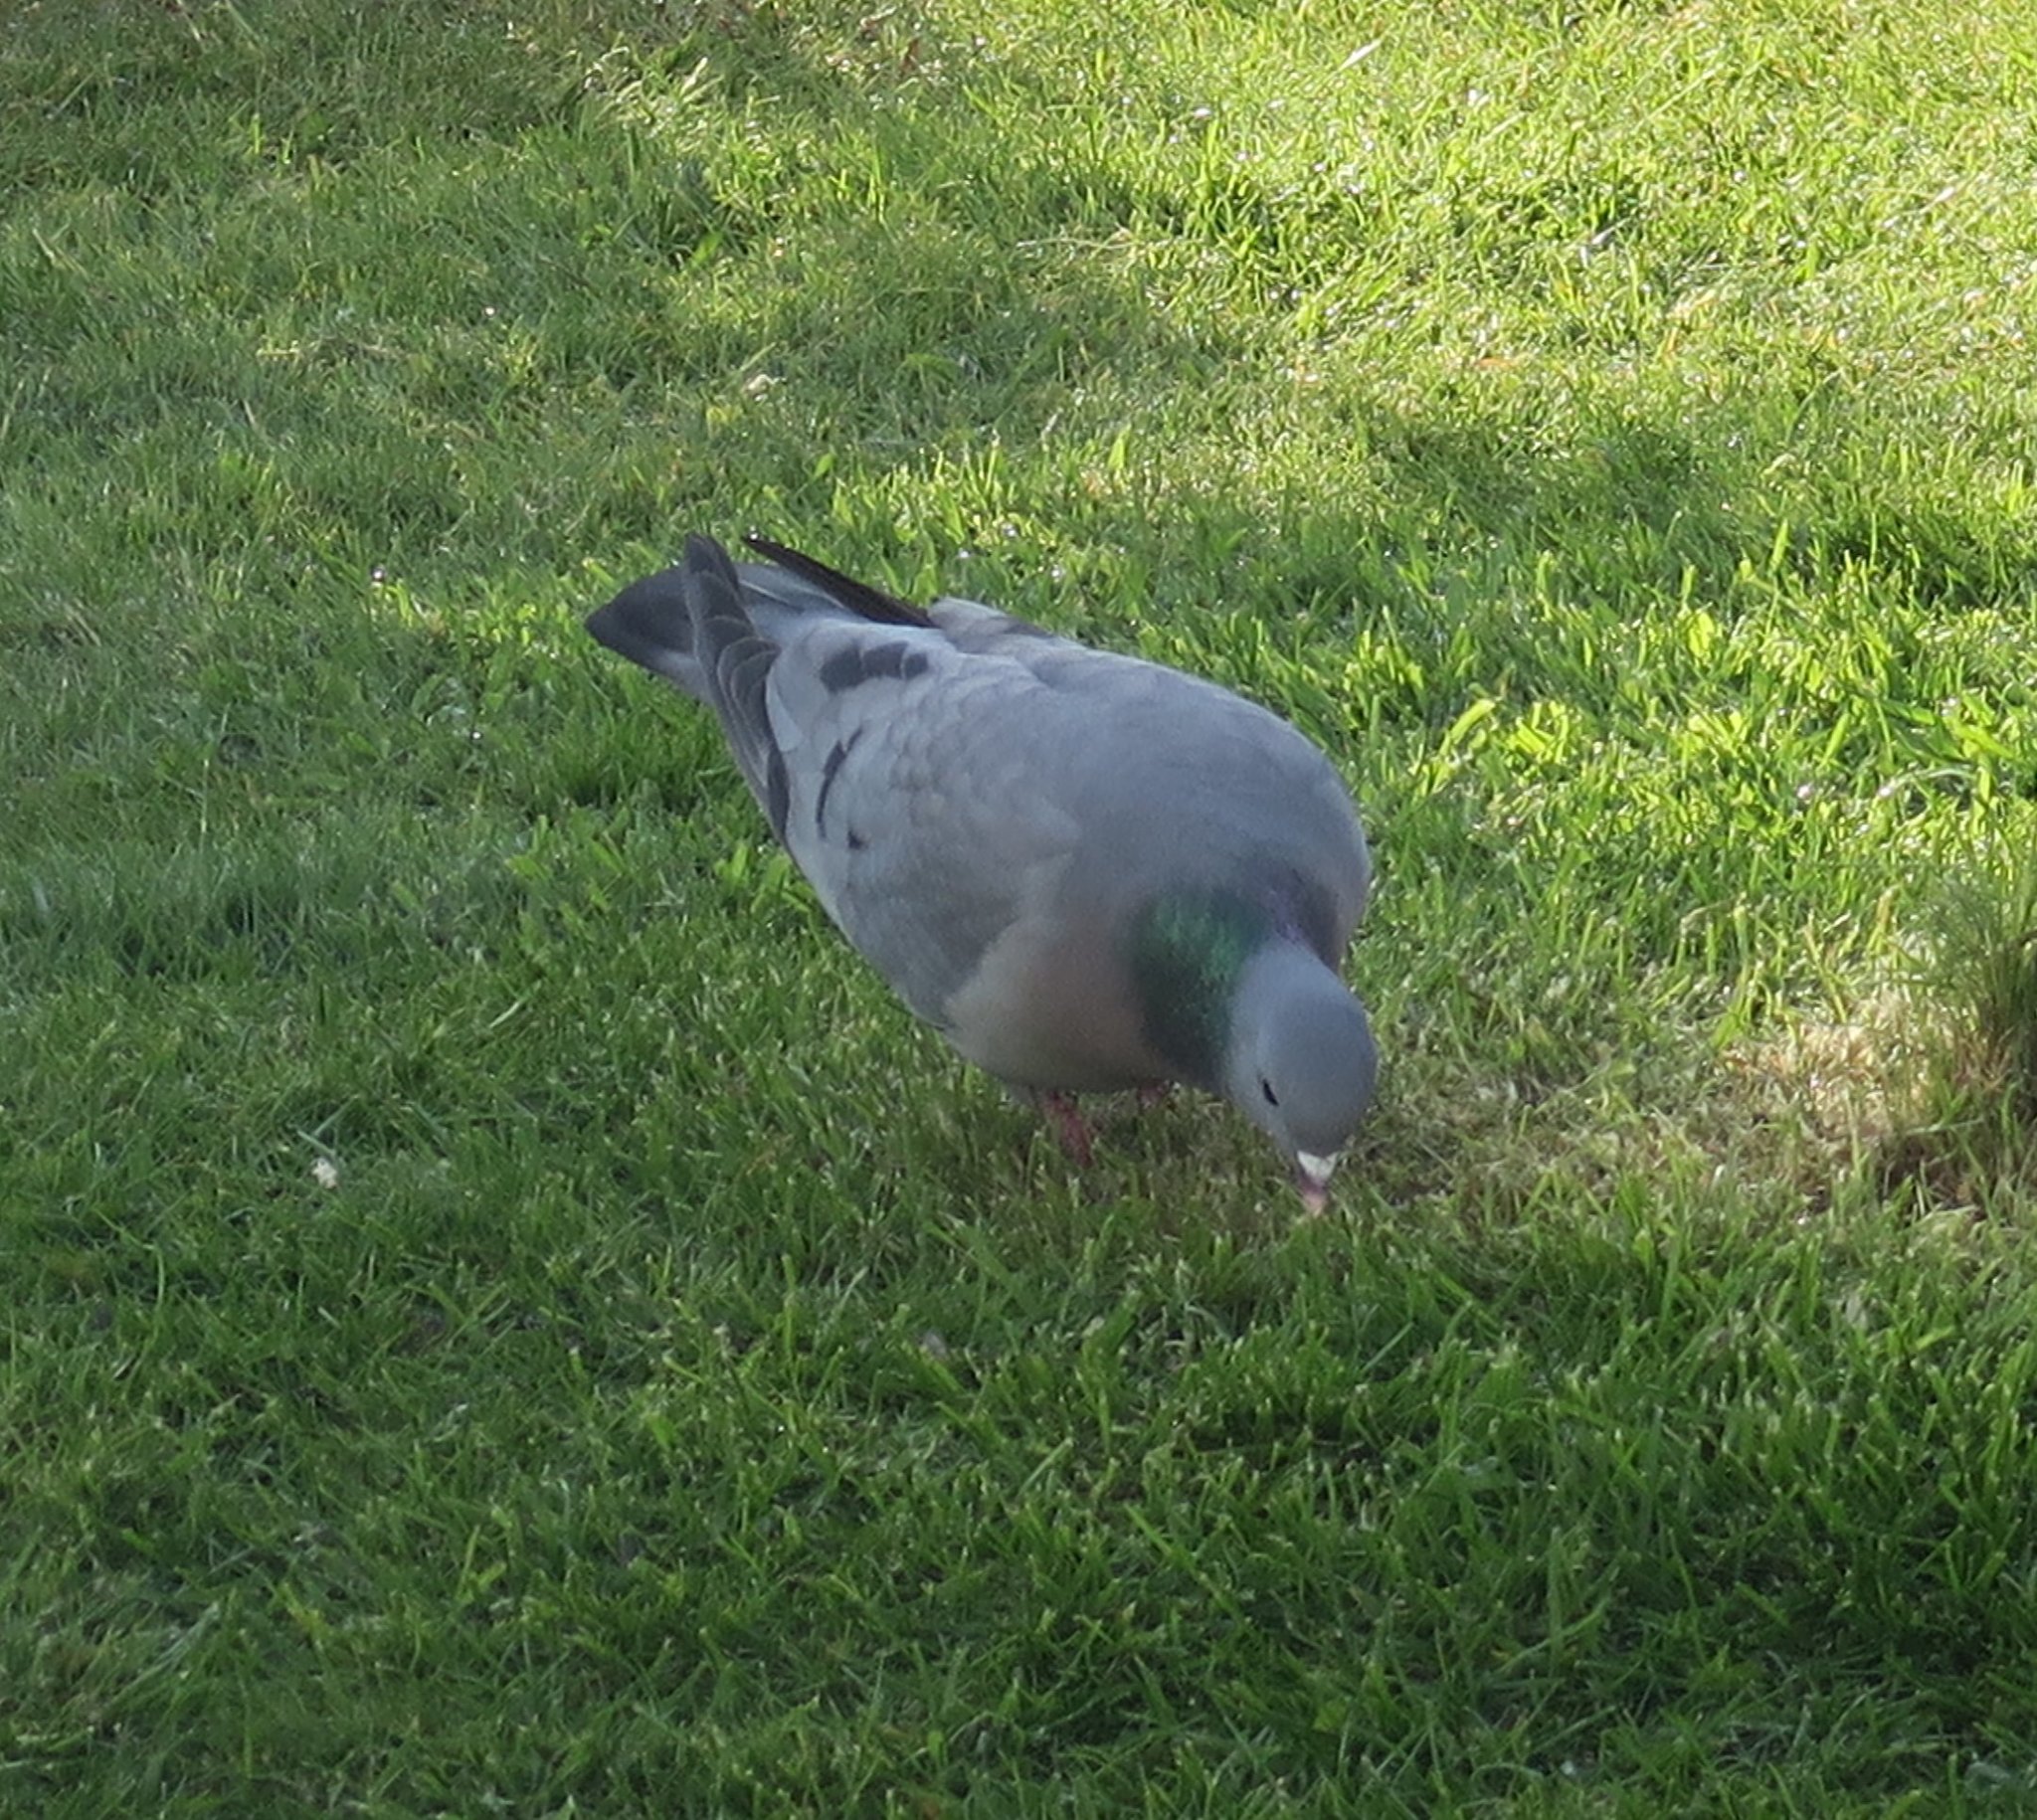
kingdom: Animalia
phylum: Chordata
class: Aves
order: Columbiformes
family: Columbidae
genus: Columba
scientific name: Columba oenas
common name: Stock dove
